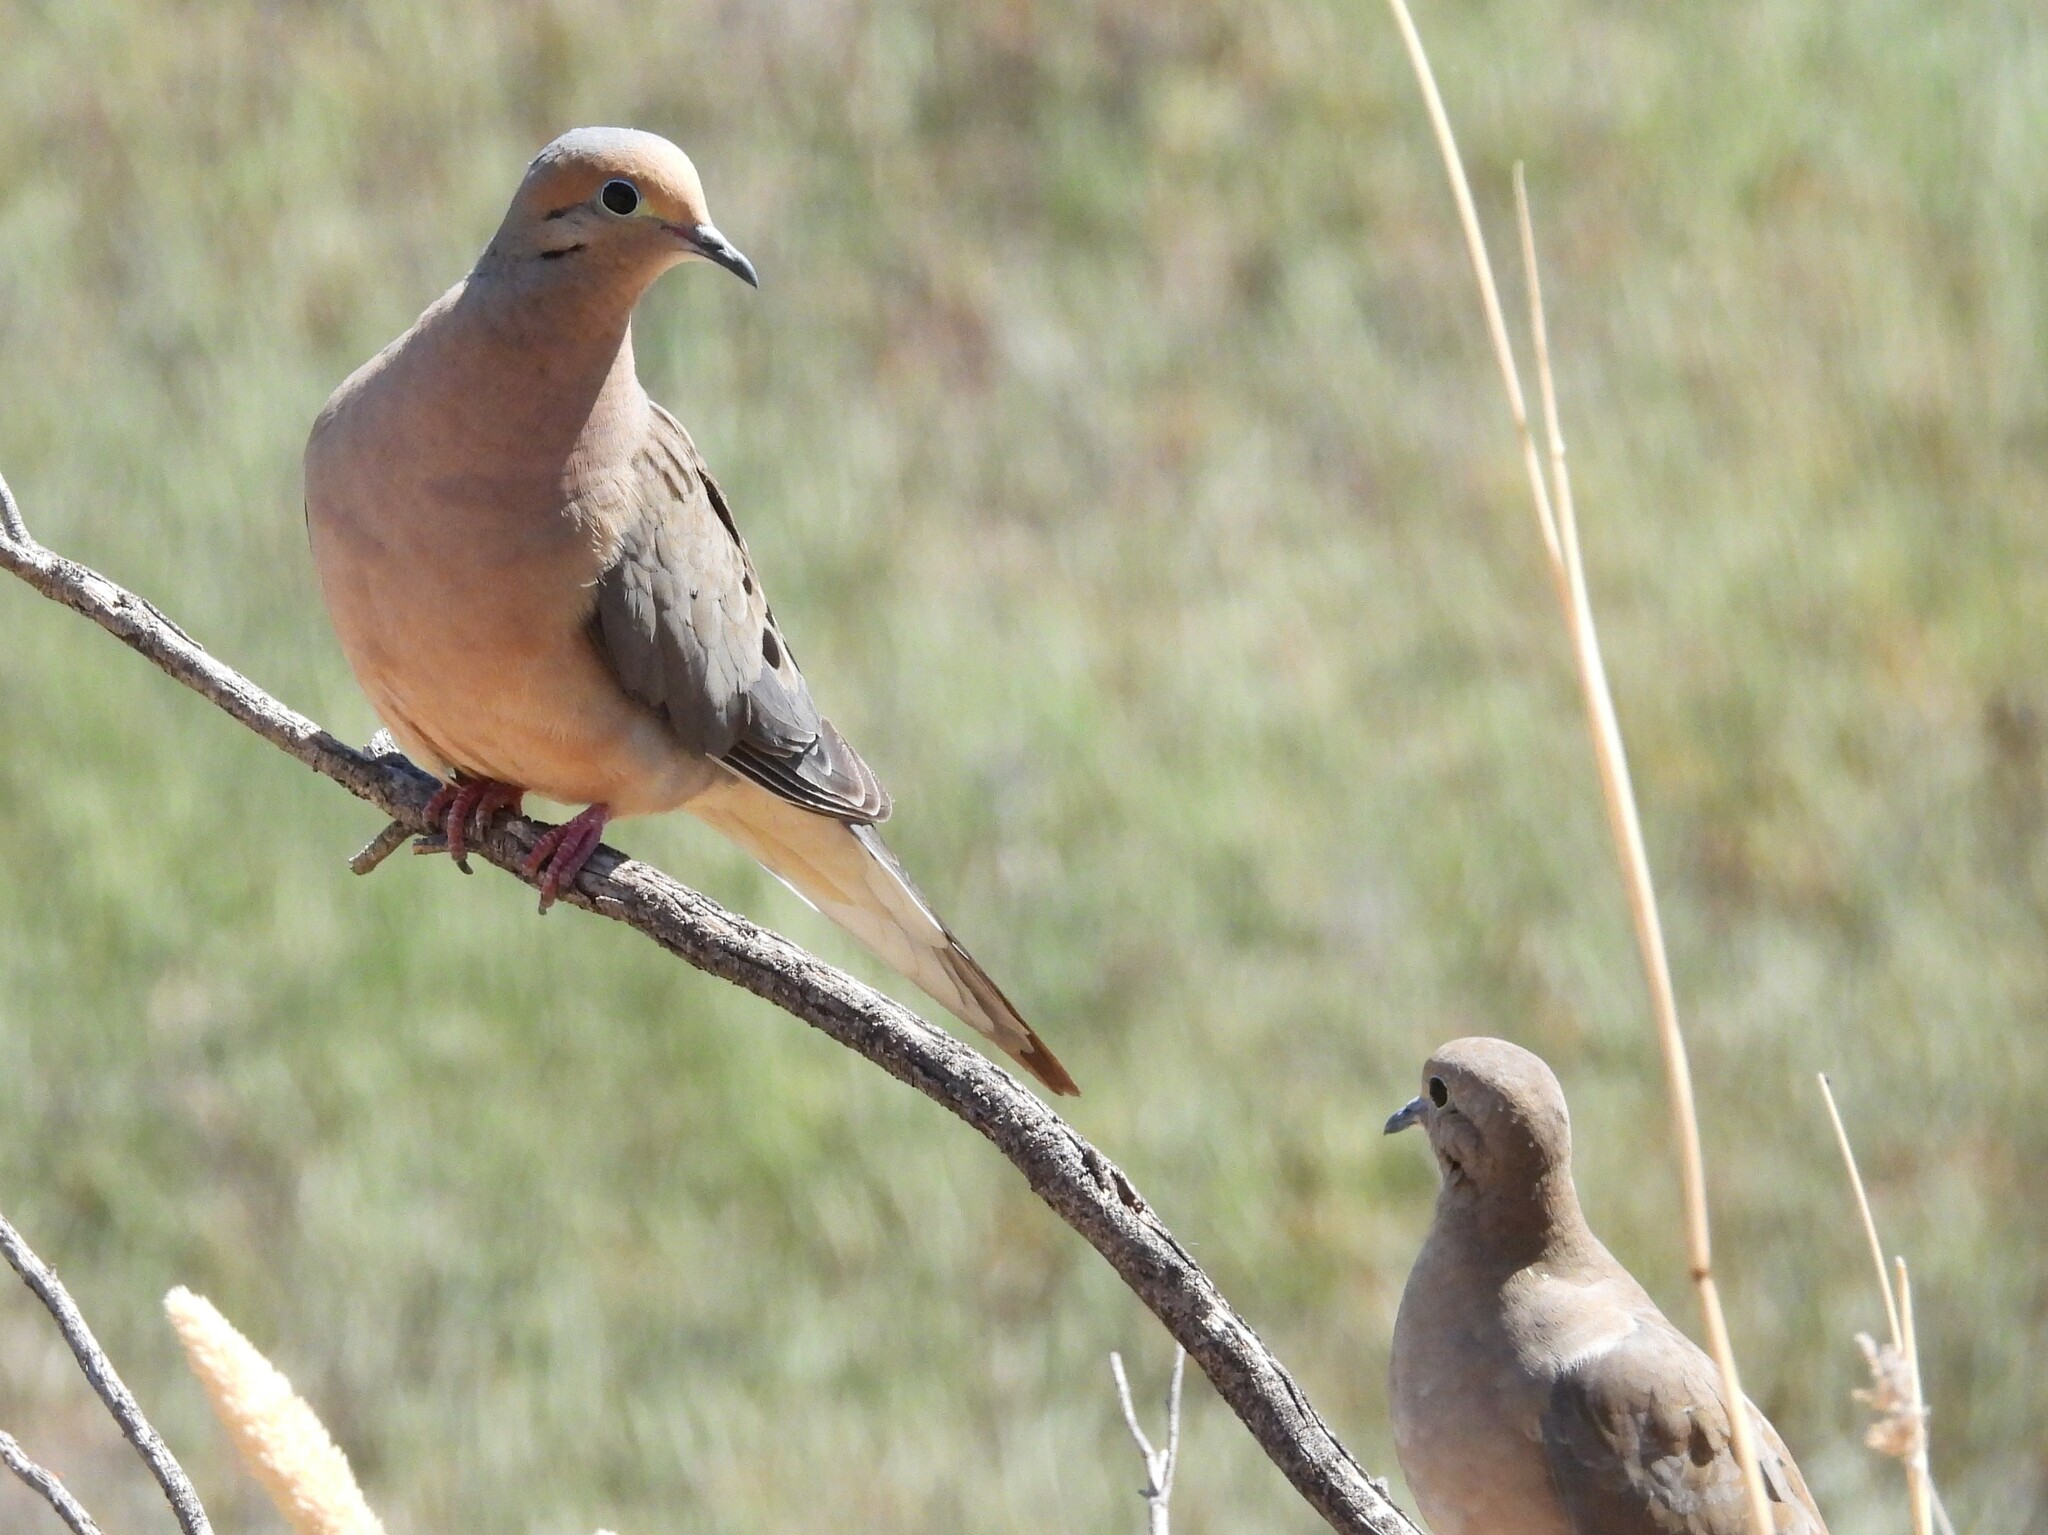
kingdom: Animalia
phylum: Chordata
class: Aves
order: Columbiformes
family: Columbidae
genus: Zenaida
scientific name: Zenaida macroura
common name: Mourning dove
